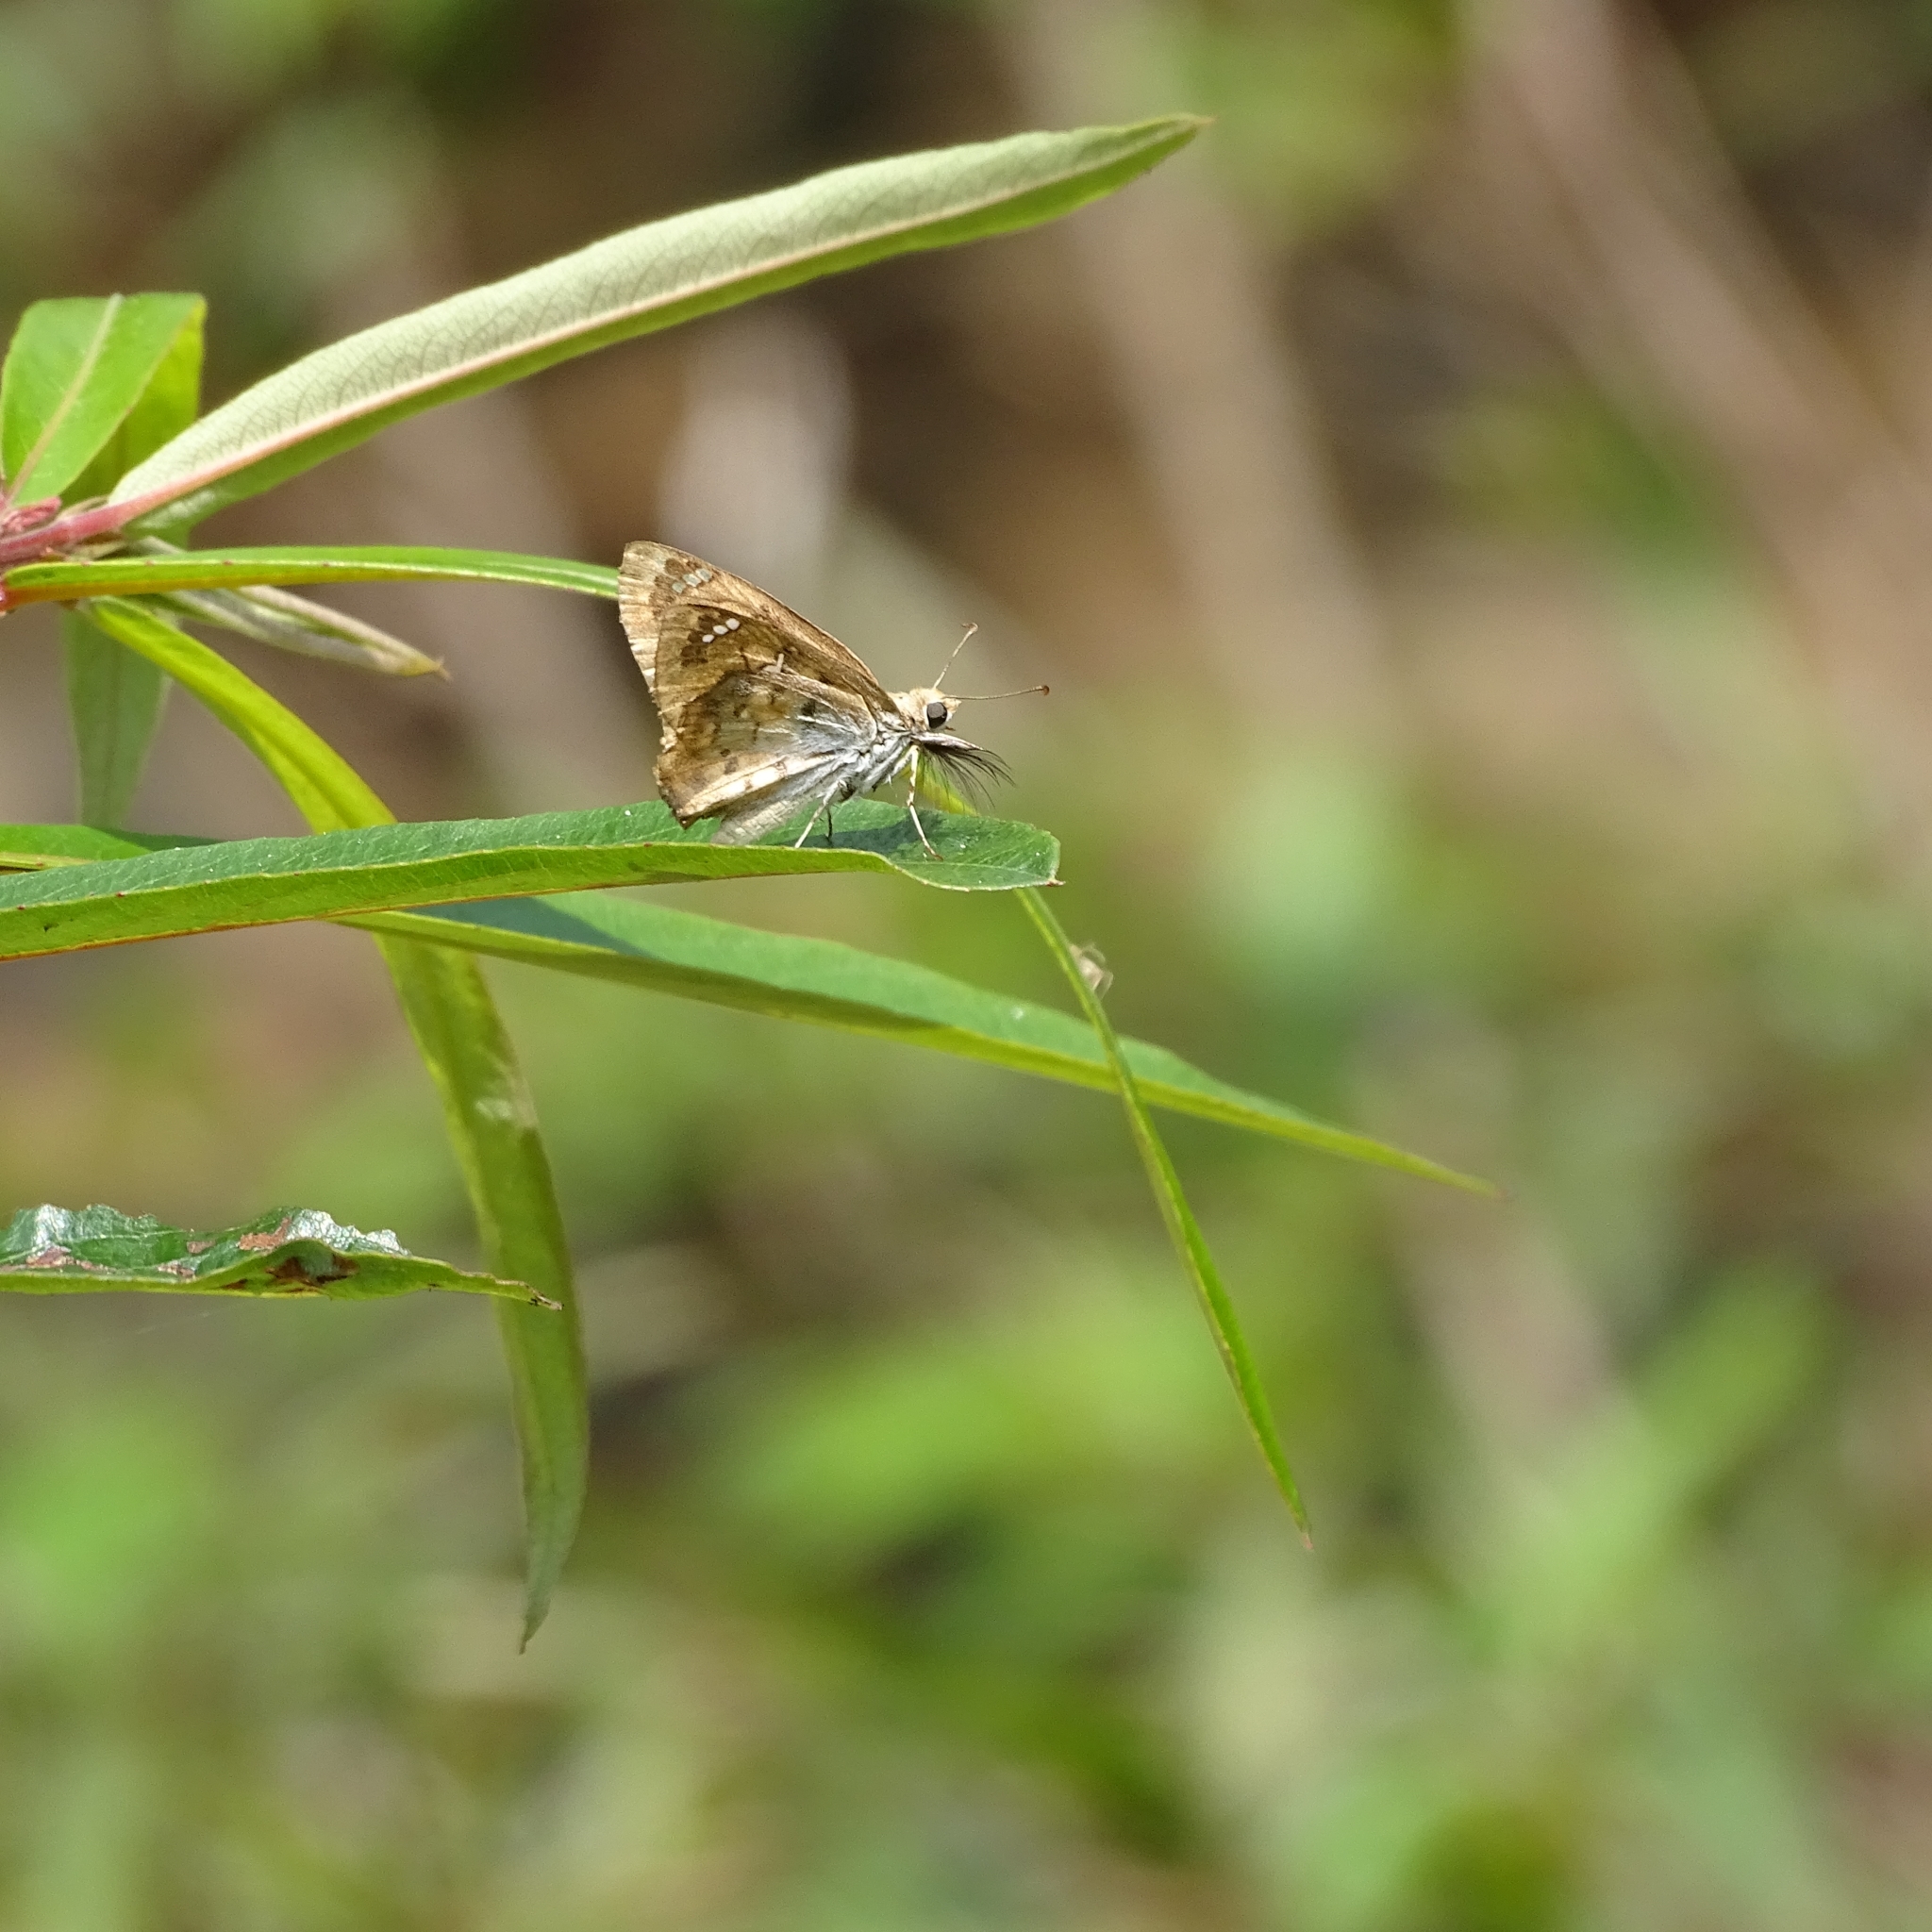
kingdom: Animalia
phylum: Arthropoda
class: Insecta
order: Lepidoptera
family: Hesperiidae
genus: Caprona
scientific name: Caprona ransonnettii
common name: Golden angle
